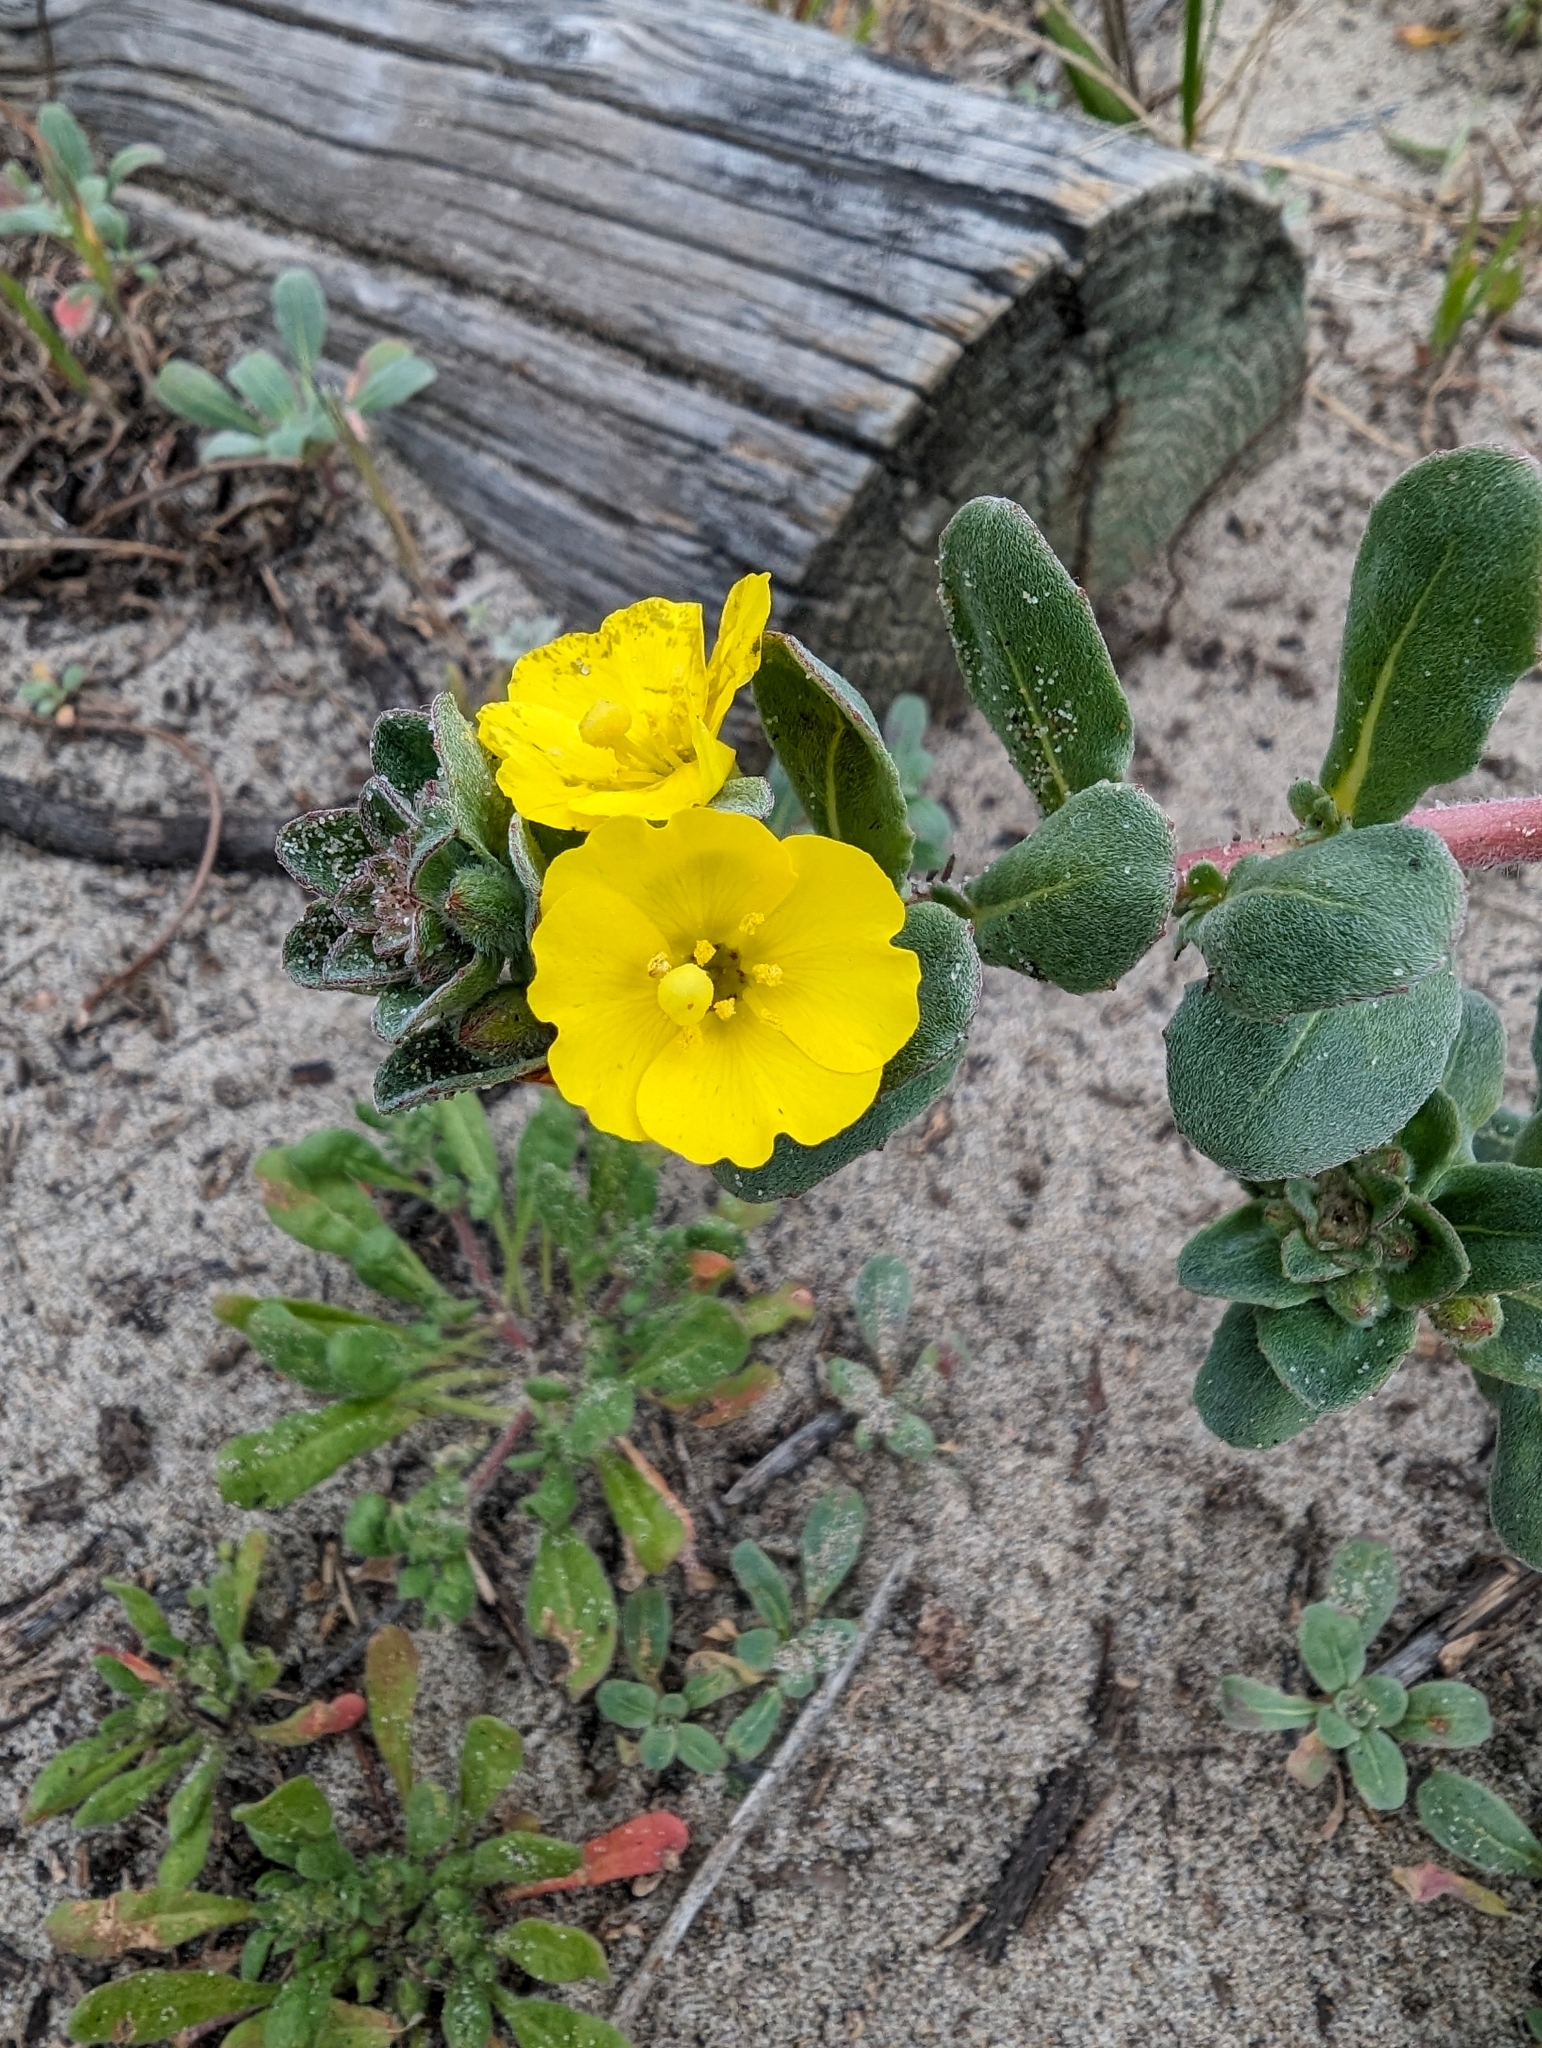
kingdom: Plantae
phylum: Tracheophyta
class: Magnoliopsida
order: Myrtales
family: Onagraceae
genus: Camissoniopsis
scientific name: Camissoniopsis cheiranthifolia
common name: Beach suncup
